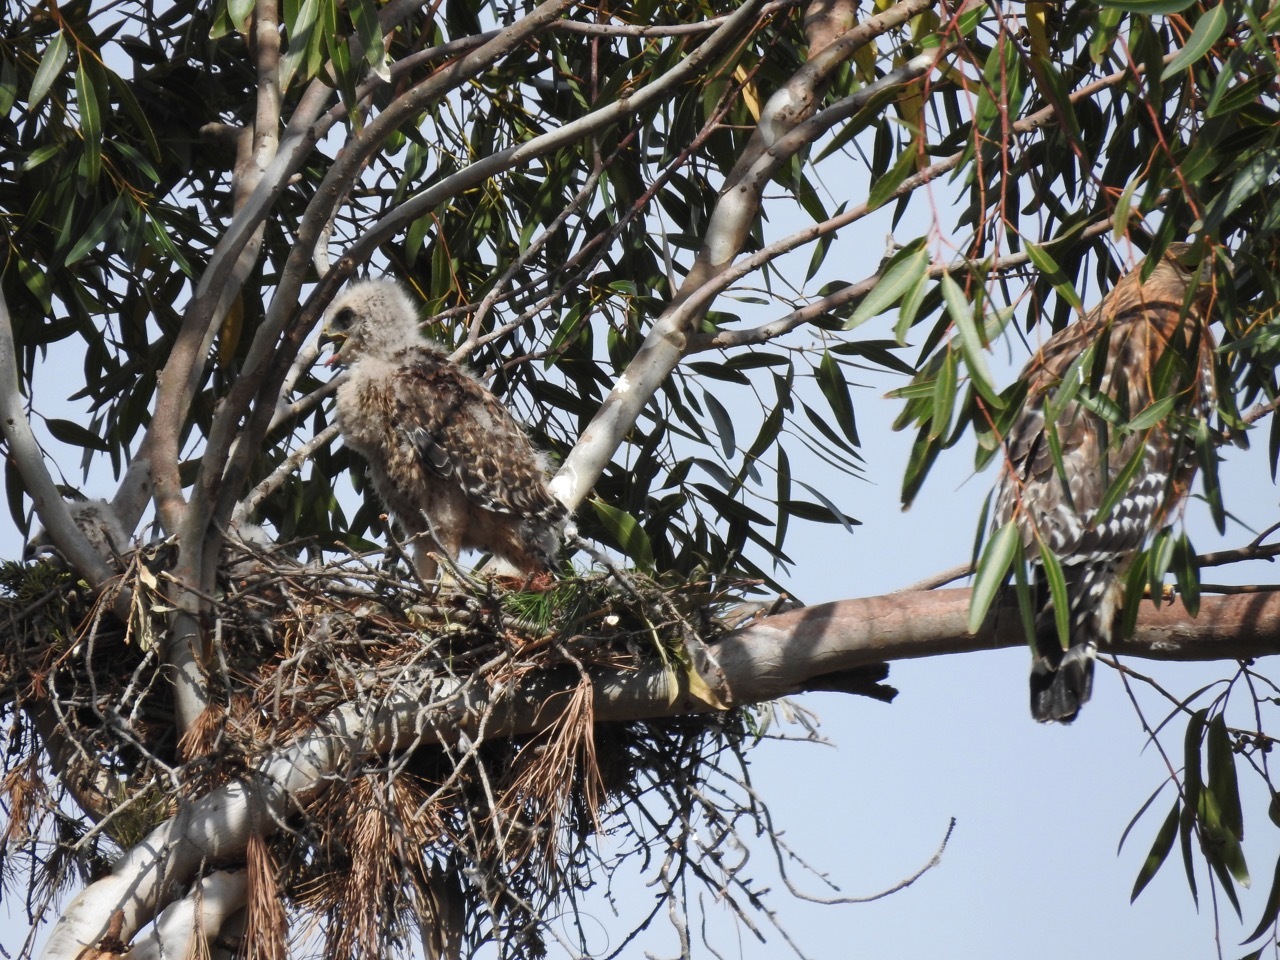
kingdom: Animalia
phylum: Chordata
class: Aves
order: Accipitriformes
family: Accipitridae
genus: Buteo
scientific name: Buteo lineatus
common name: Red-shouldered hawk
